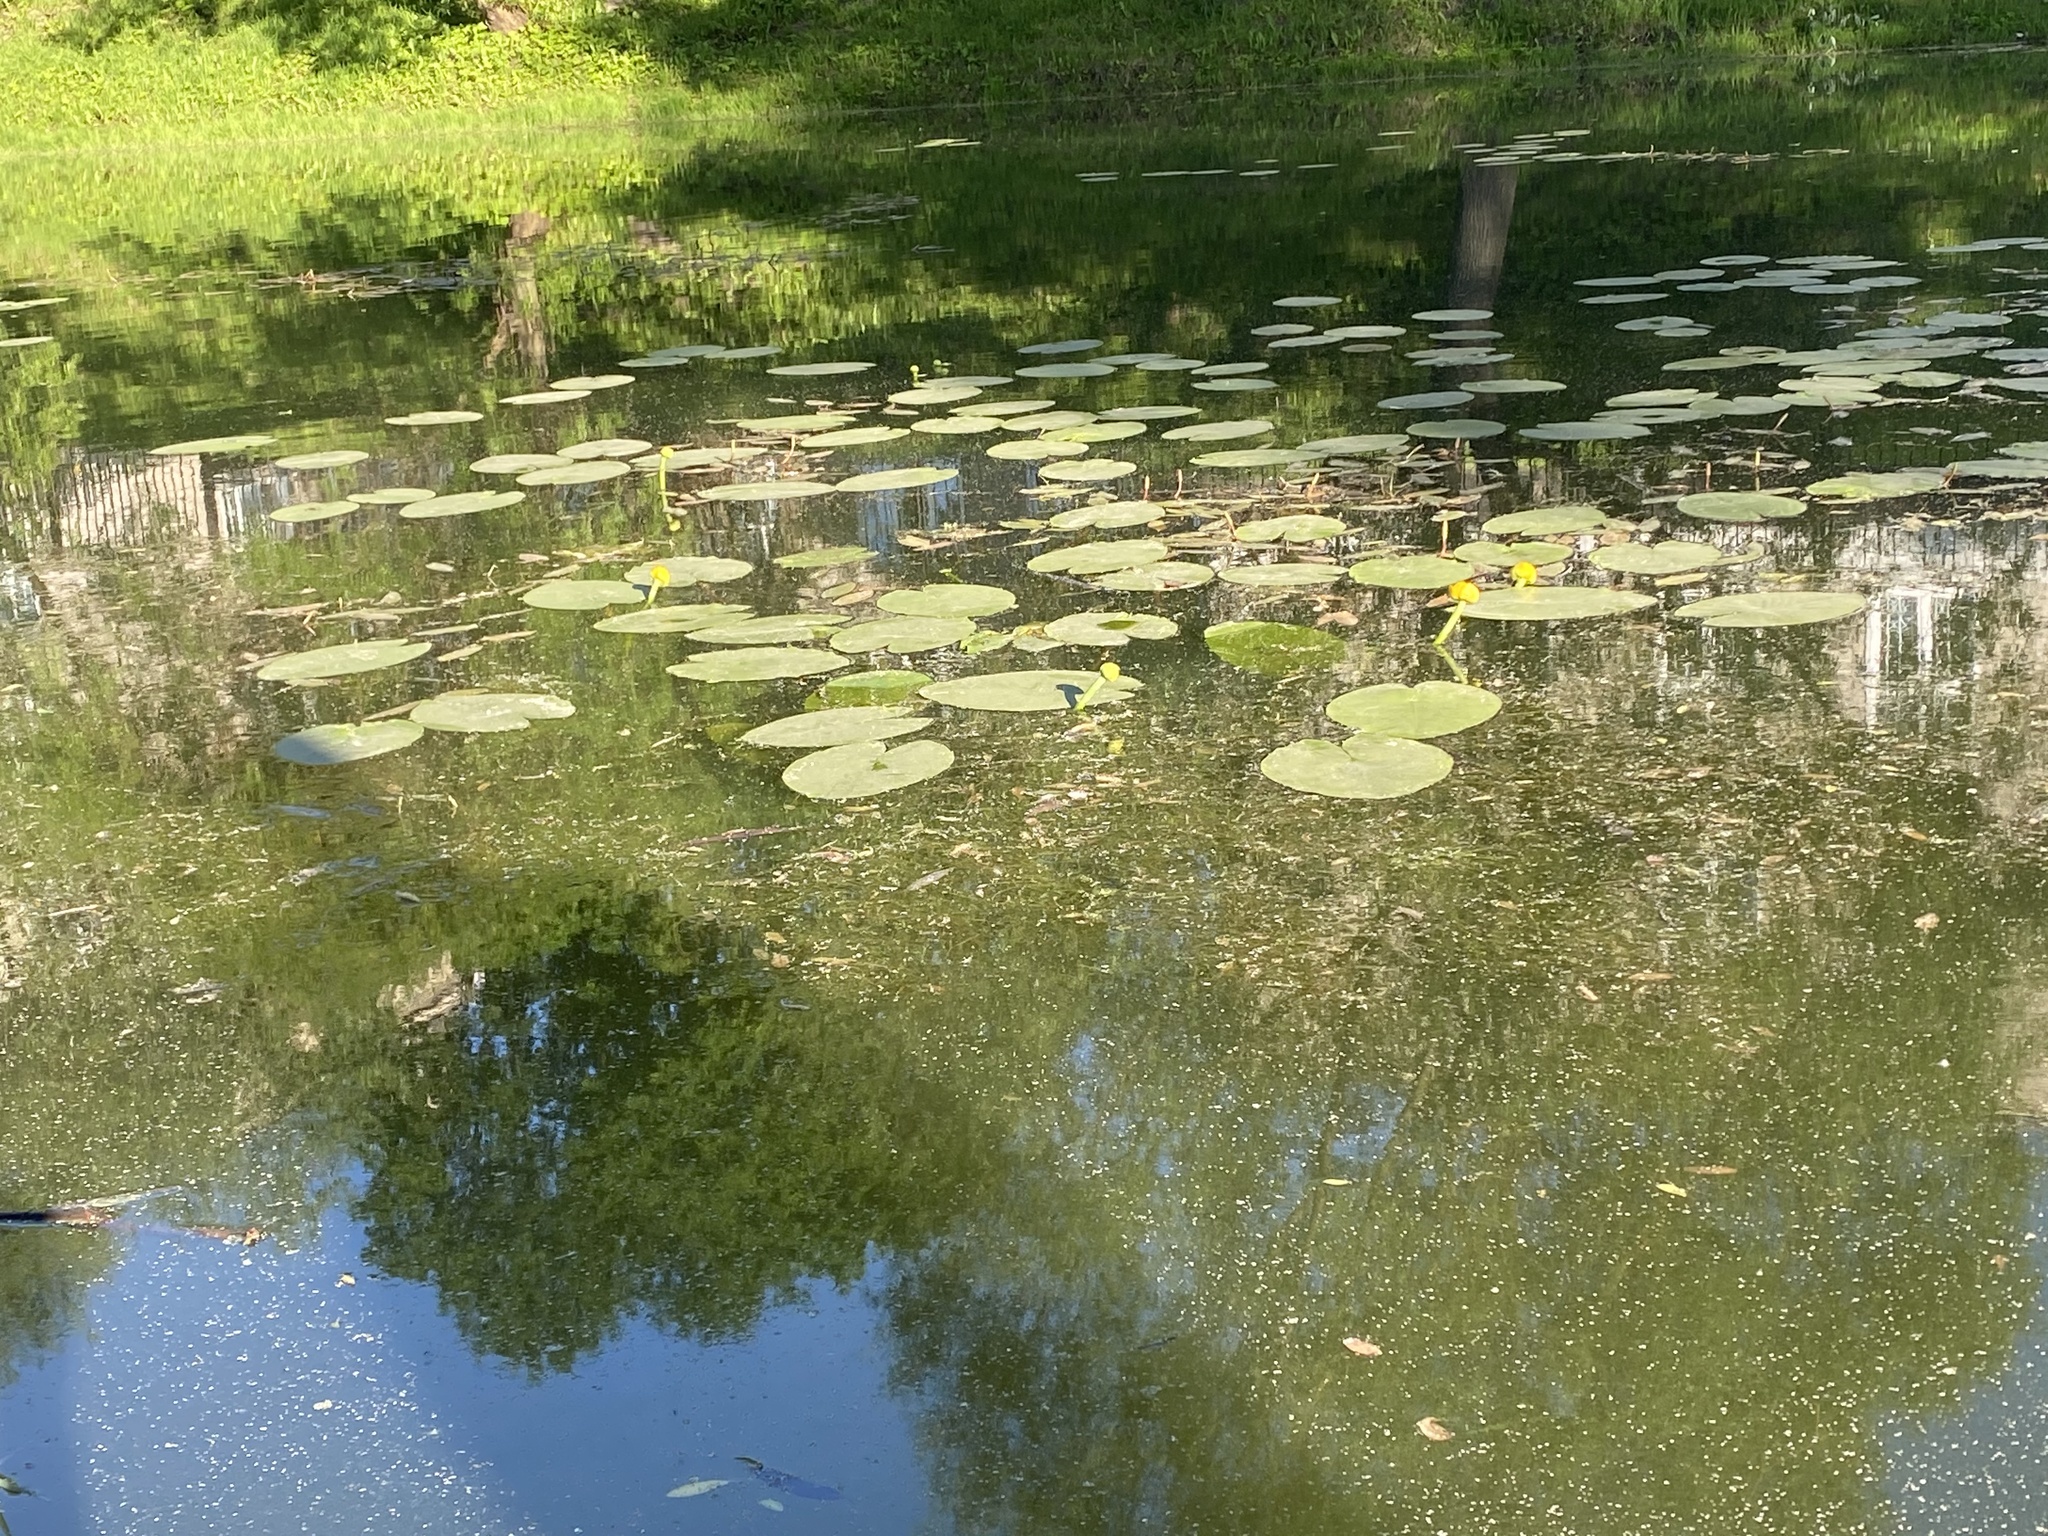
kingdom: Plantae
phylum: Tracheophyta
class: Magnoliopsida
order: Nymphaeales
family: Nymphaeaceae
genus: Nuphar
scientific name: Nuphar lutea
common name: Yellow water-lily
